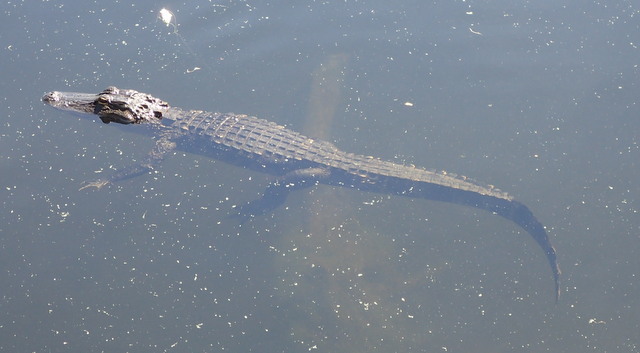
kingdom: Animalia
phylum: Chordata
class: Crocodylia
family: Alligatoridae
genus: Alligator
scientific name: Alligator mississippiensis
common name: American alligator
